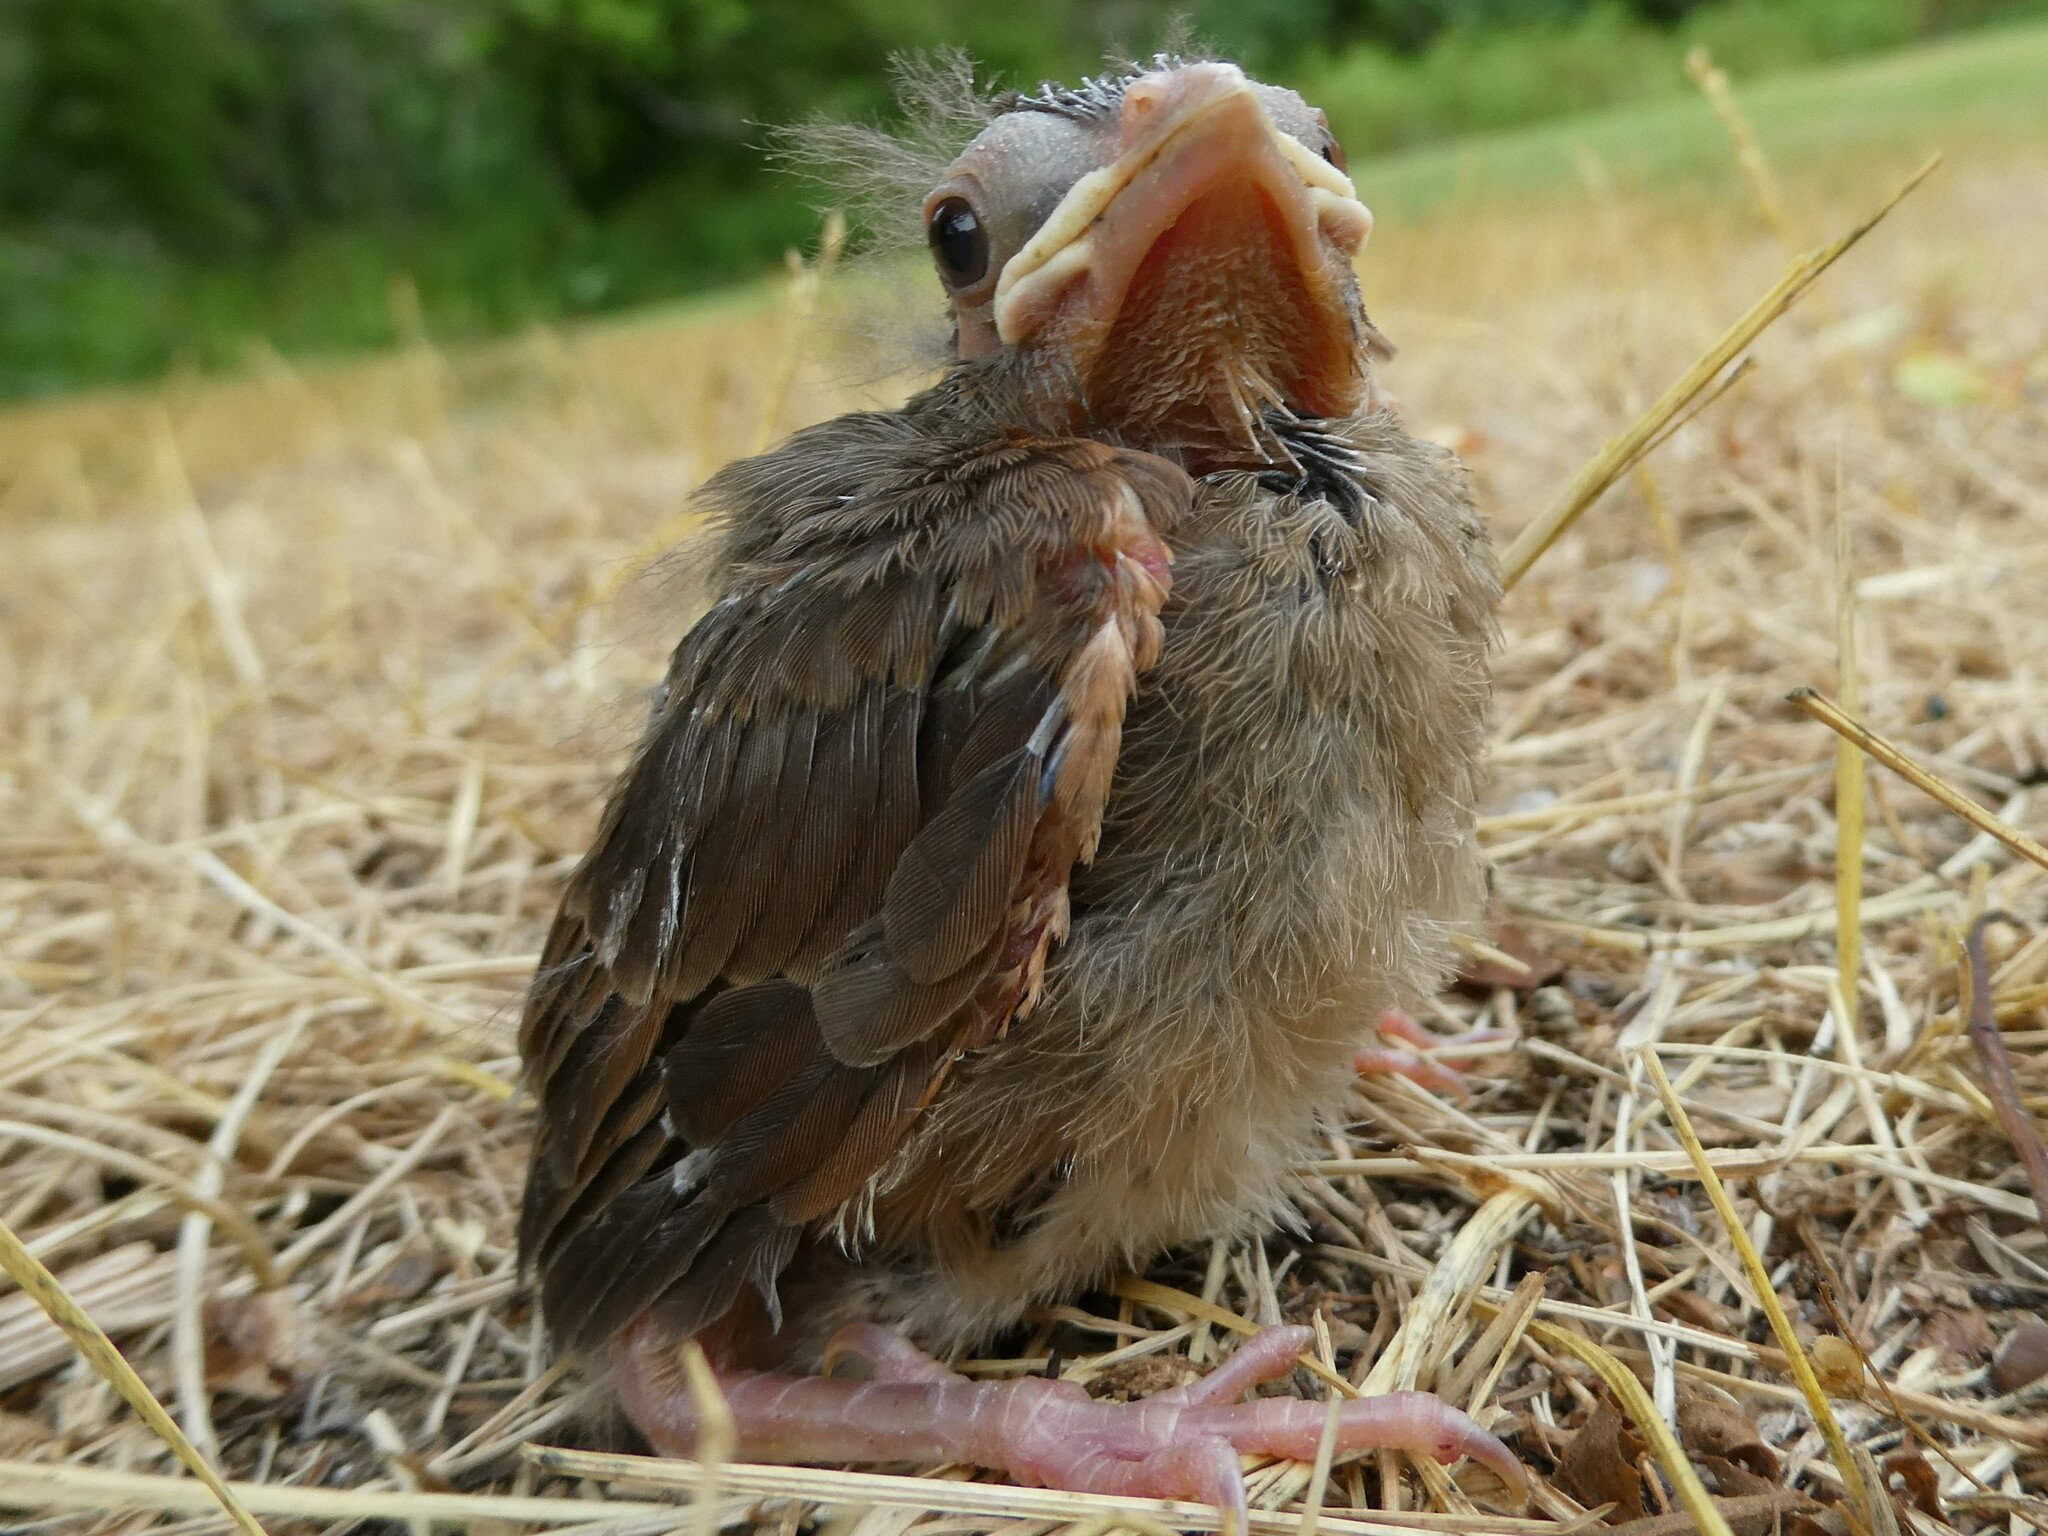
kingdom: Animalia
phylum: Chordata
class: Aves
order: Passeriformes
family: Cardinalidae
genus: Cardinalis
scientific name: Cardinalis cardinalis
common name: Northern cardinal
